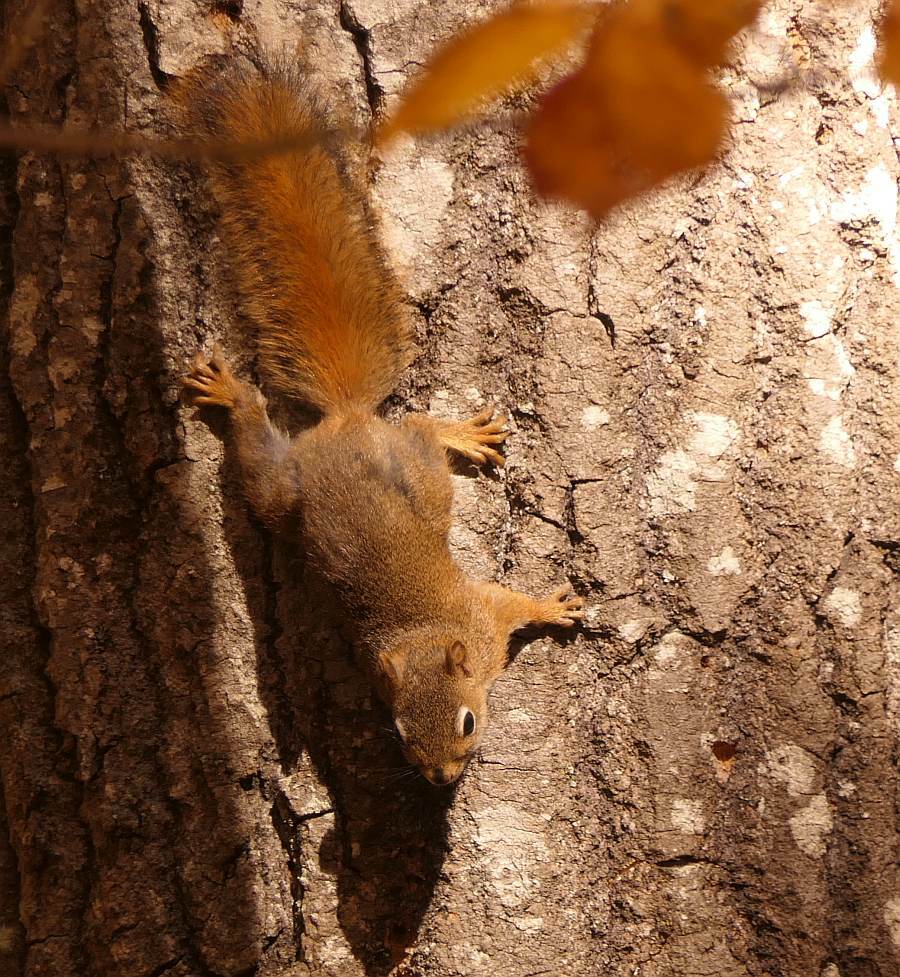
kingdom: Animalia
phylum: Chordata
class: Mammalia
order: Rodentia
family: Sciuridae
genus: Tamiasciurus
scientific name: Tamiasciurus hudsonicus
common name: Red squirrel
